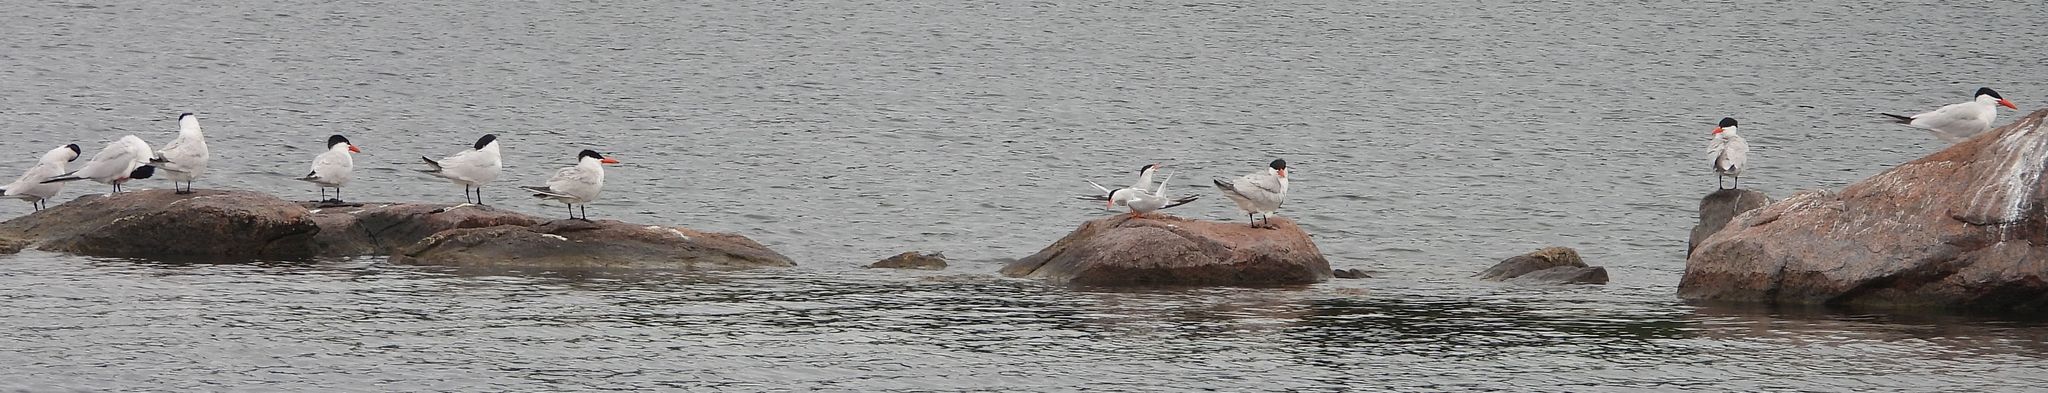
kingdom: Animalia
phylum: Chordata
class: Aves
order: Charadriiformes
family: Laridae
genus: Hydroprogne
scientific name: Hydroprogne caspia
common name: Caspian tern
